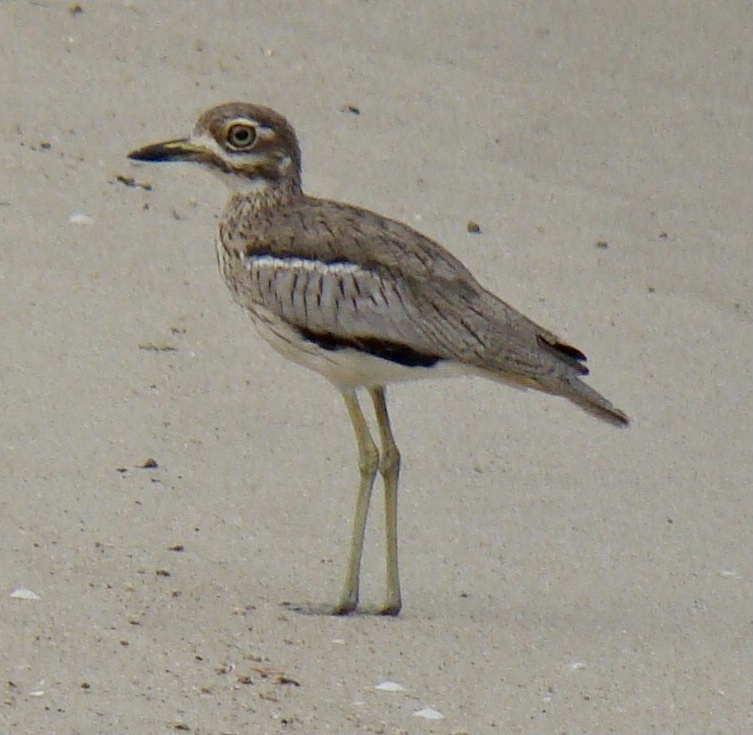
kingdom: Animalia
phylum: Chordata
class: Aves
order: Charadriiformes
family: Burhinidae
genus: Burhinus
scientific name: Burhinus vermiculatus
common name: Water thick-knee
